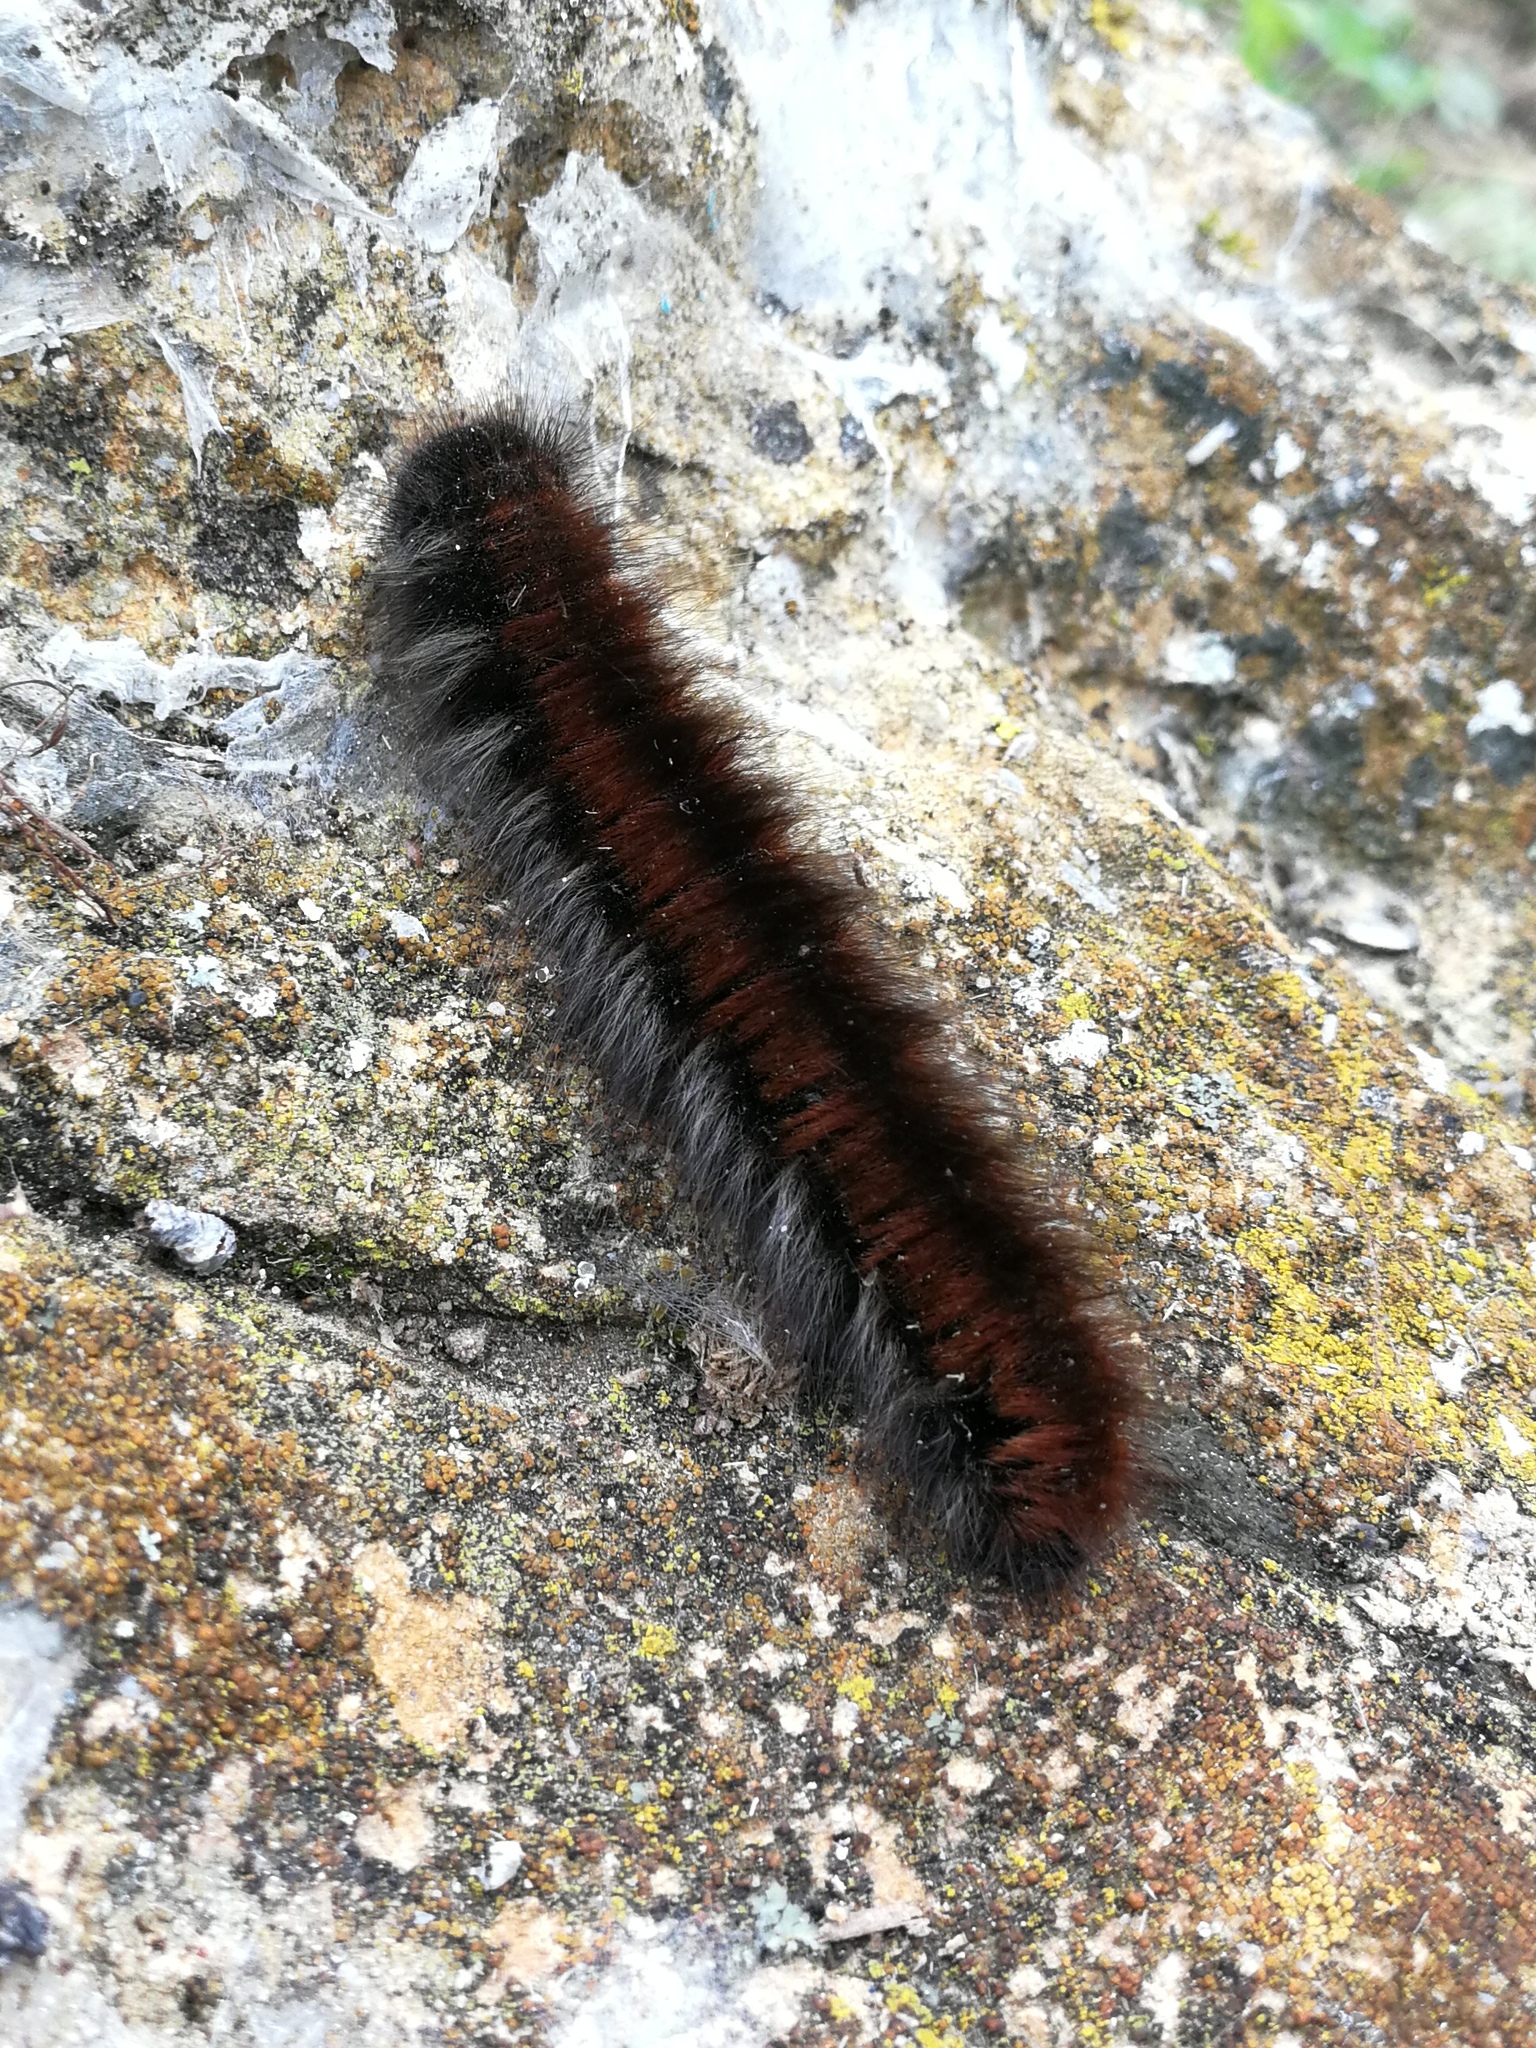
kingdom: Animalia
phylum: Arthropoda
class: Insecta
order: Lepidoptera
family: Lasiocampidae
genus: Macrothylacia
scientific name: Macrothylacia rubi
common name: Fox moth
